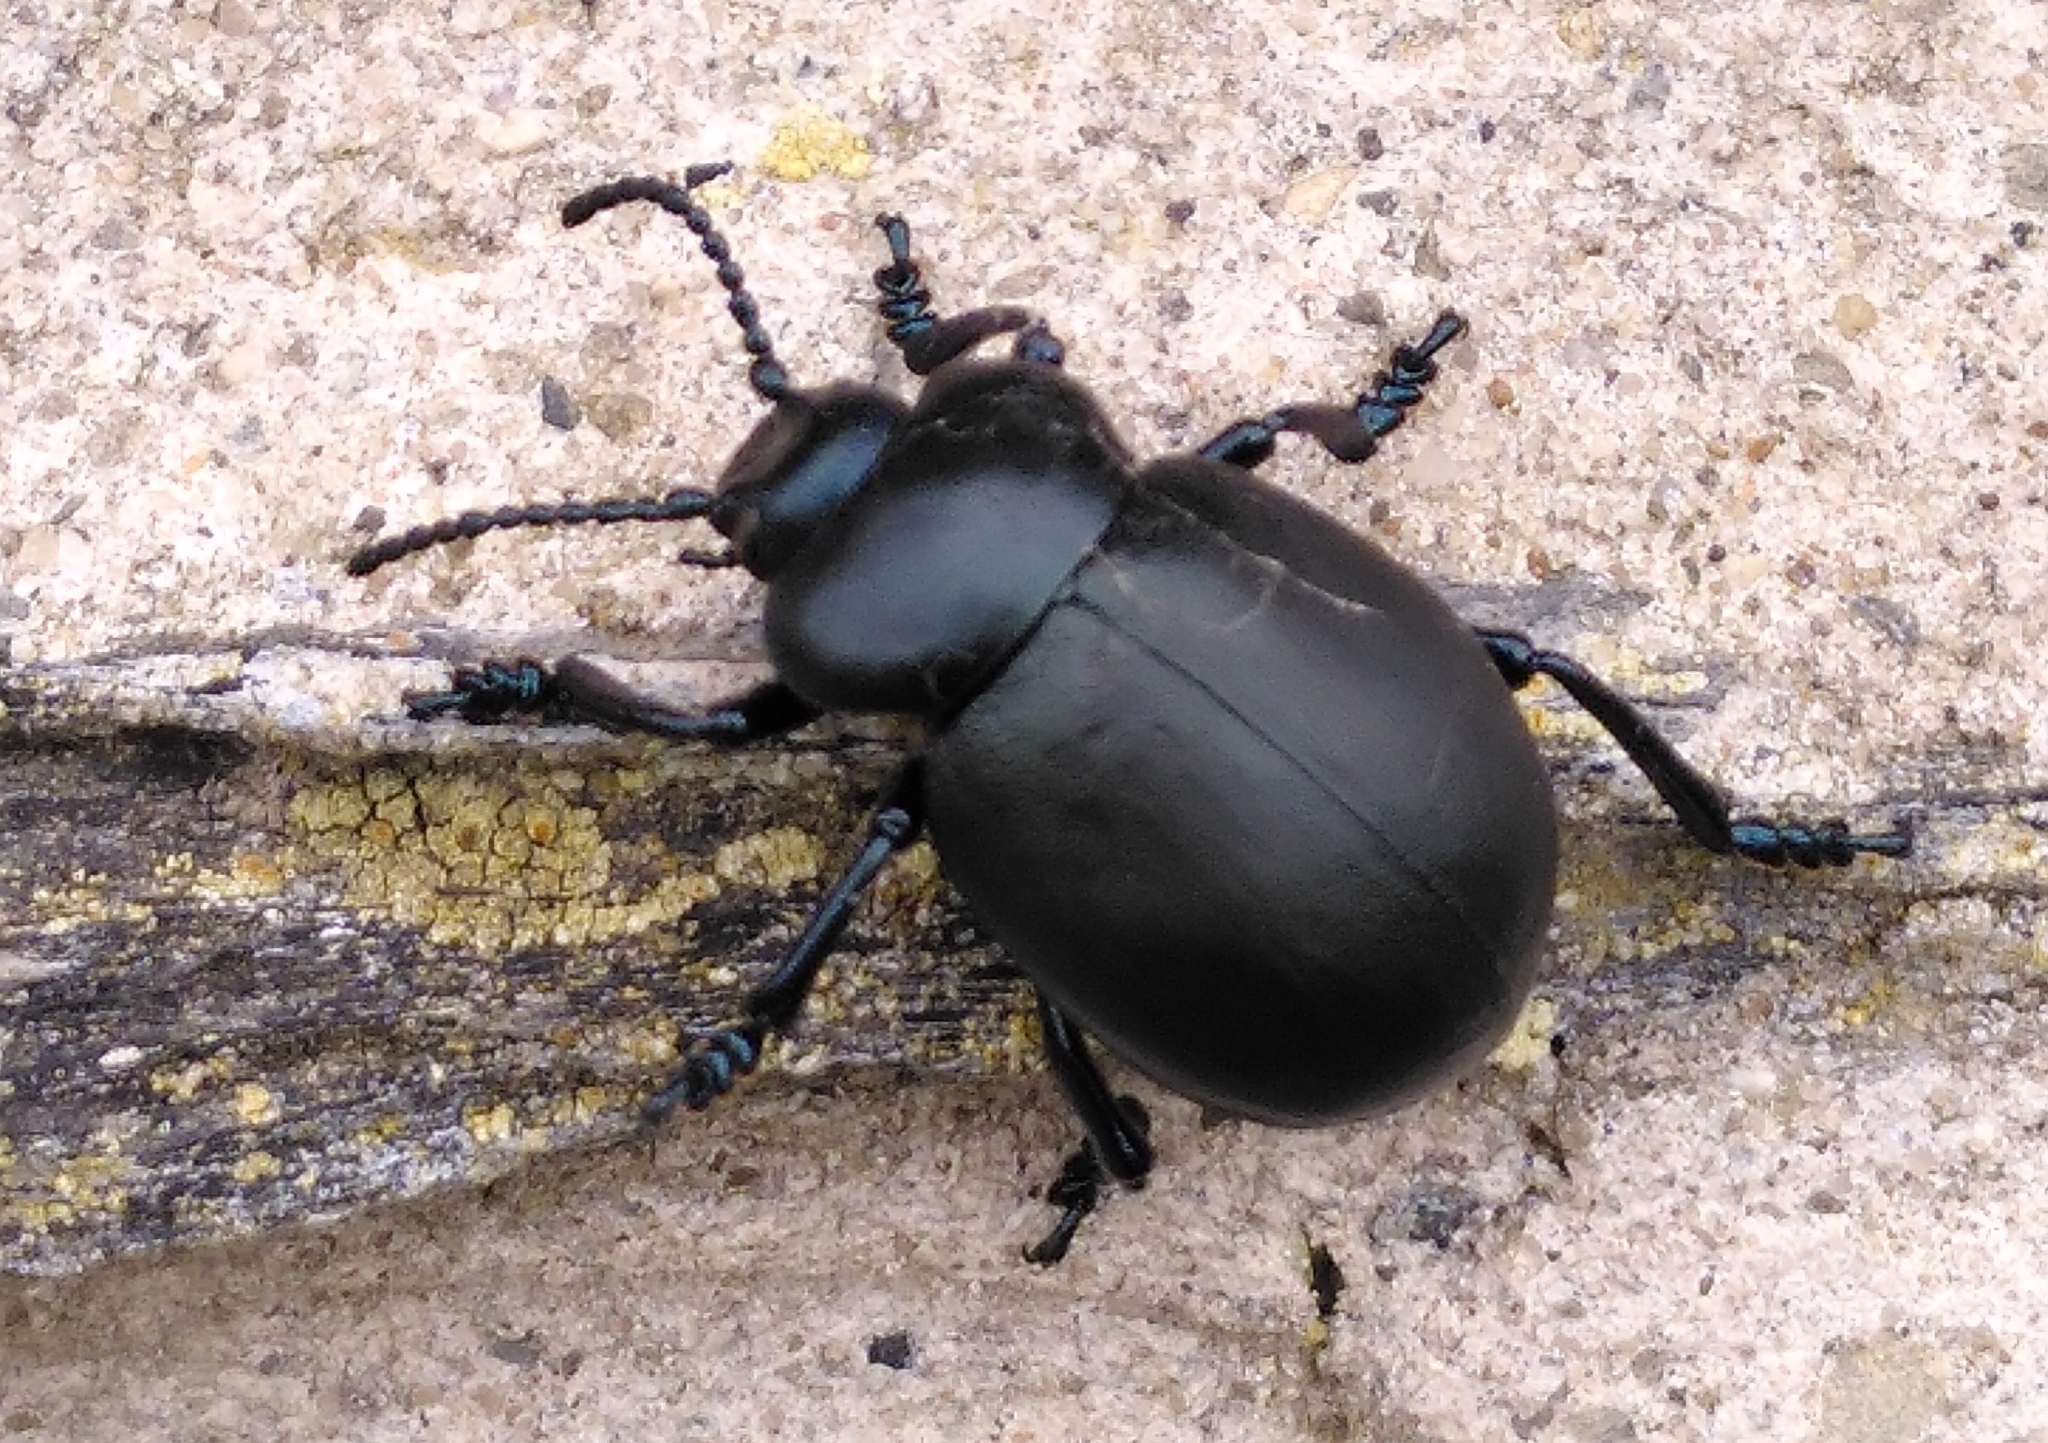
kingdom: Animalia
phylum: Arthropoda
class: Insecta
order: Coleoptera
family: Chrysomelidae
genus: Timarcha
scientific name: Timarcha tenebricosa
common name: Bloody-nosed beetle
